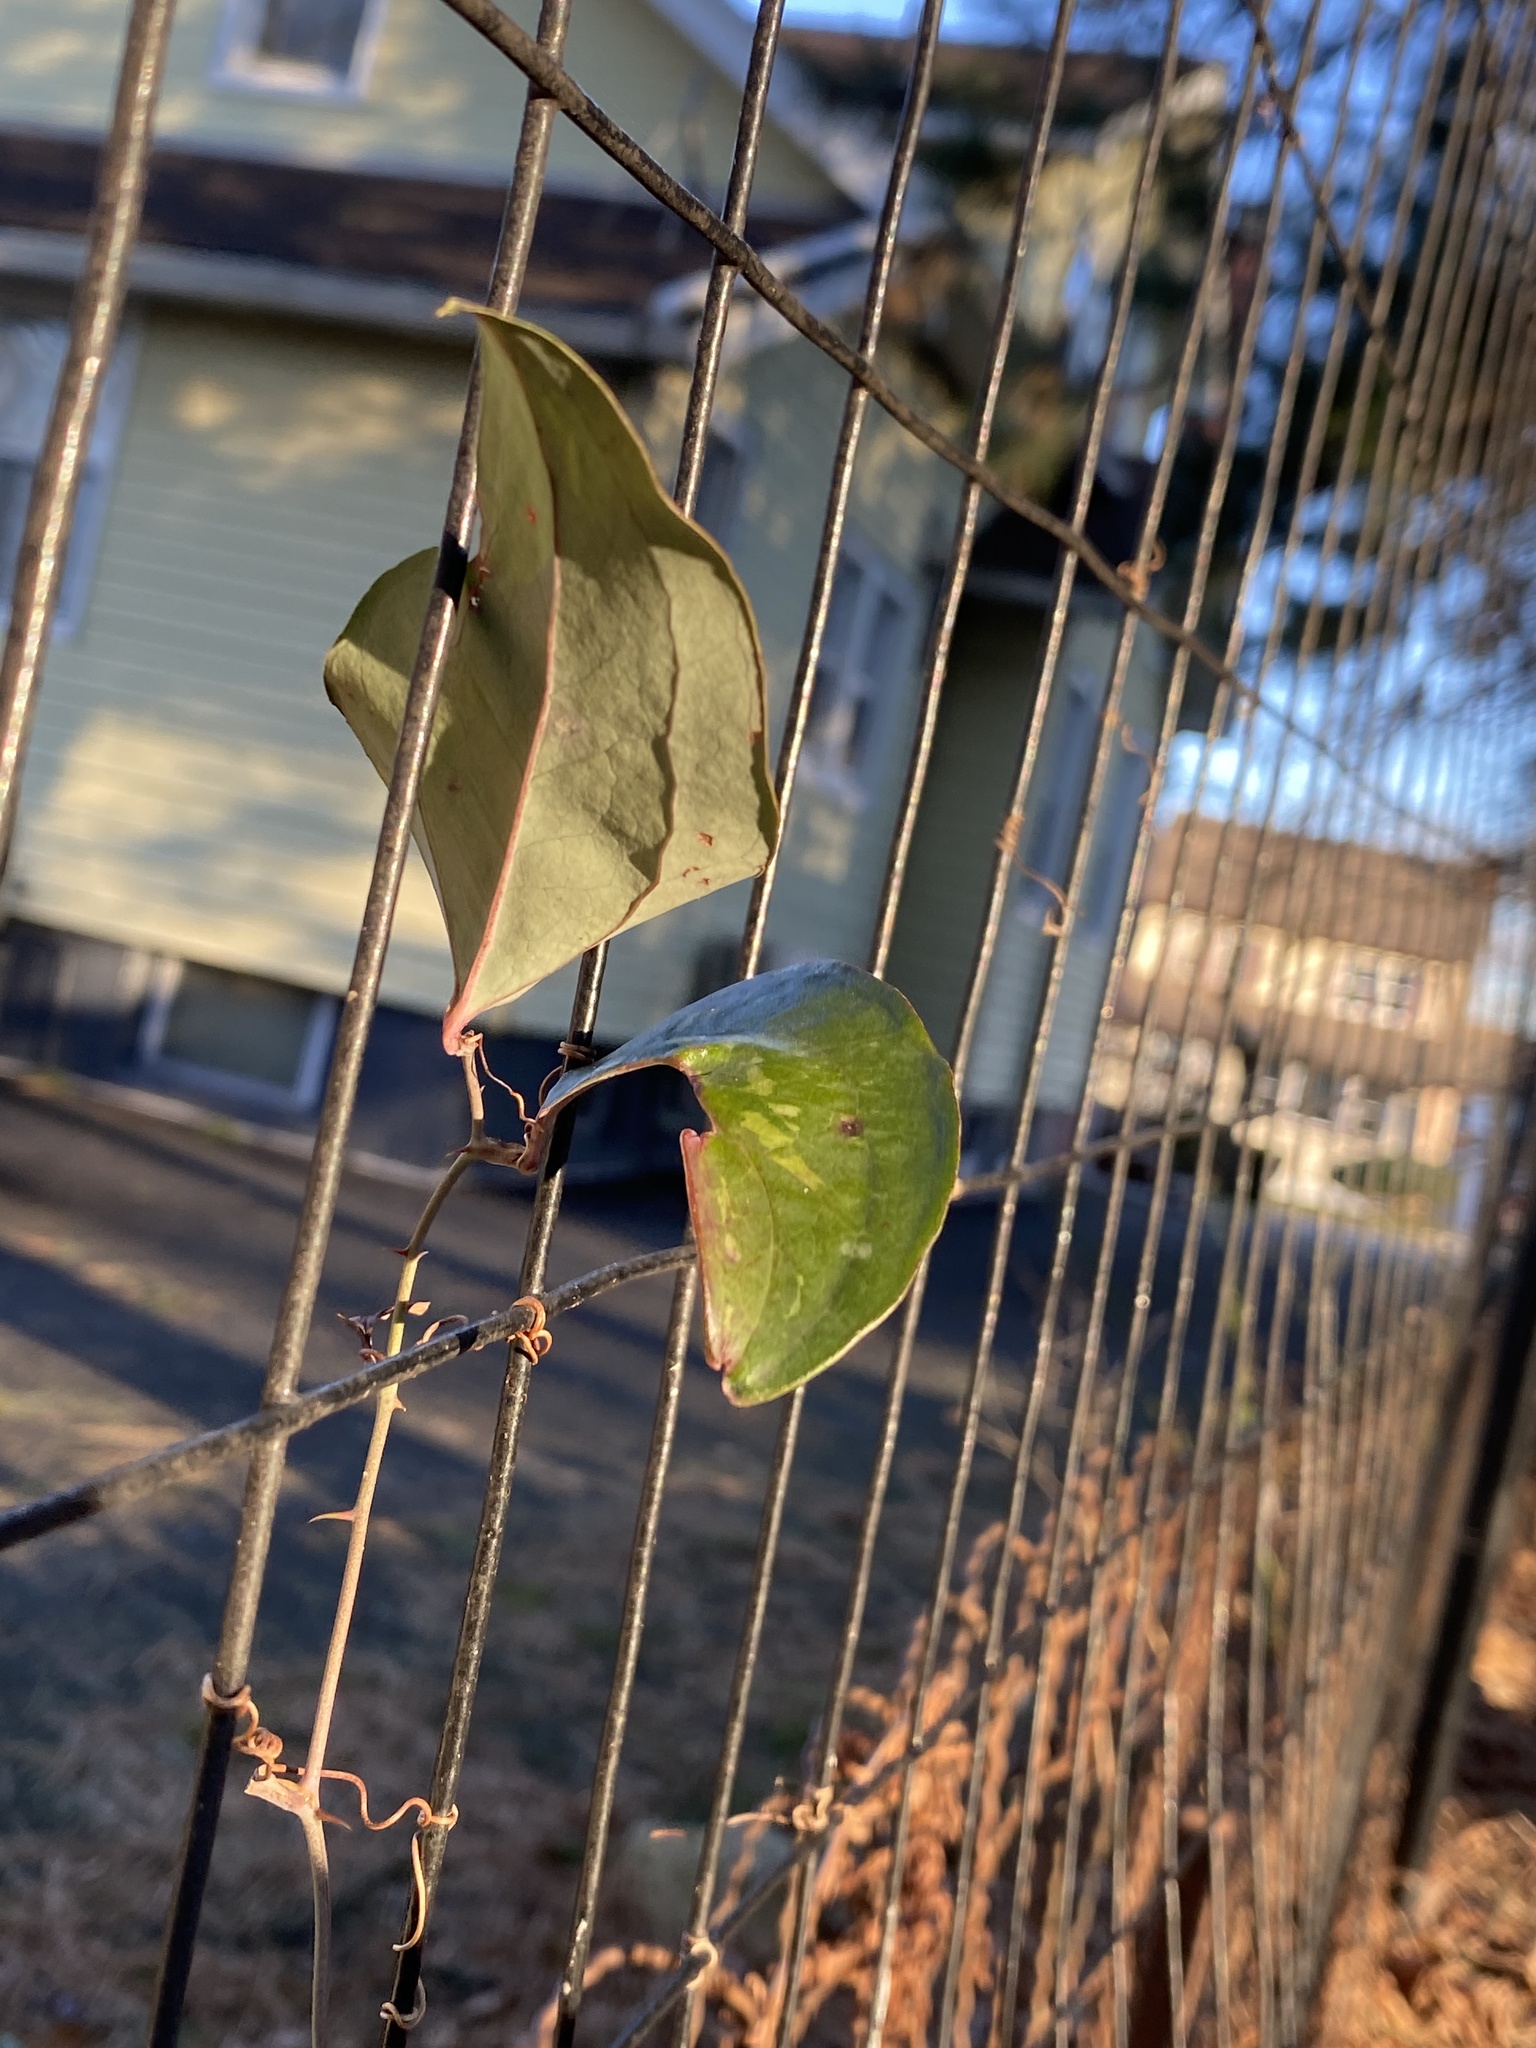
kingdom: Plantae
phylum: Tracheophyta
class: Liliopsida
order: Liliales
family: Smilacaceae
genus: Smilax
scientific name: Smilax glauca
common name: Cat greenbrier
